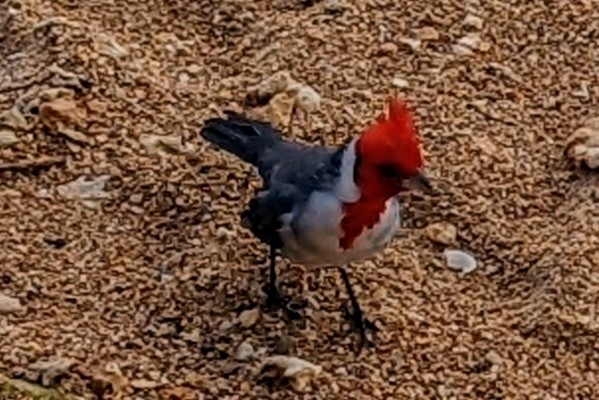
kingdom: Animalia
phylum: Chordata
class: Aves
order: Passeriformes
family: Thraupidae
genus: Paroaria
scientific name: Paroaria coronata
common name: Red-crested cardinal
